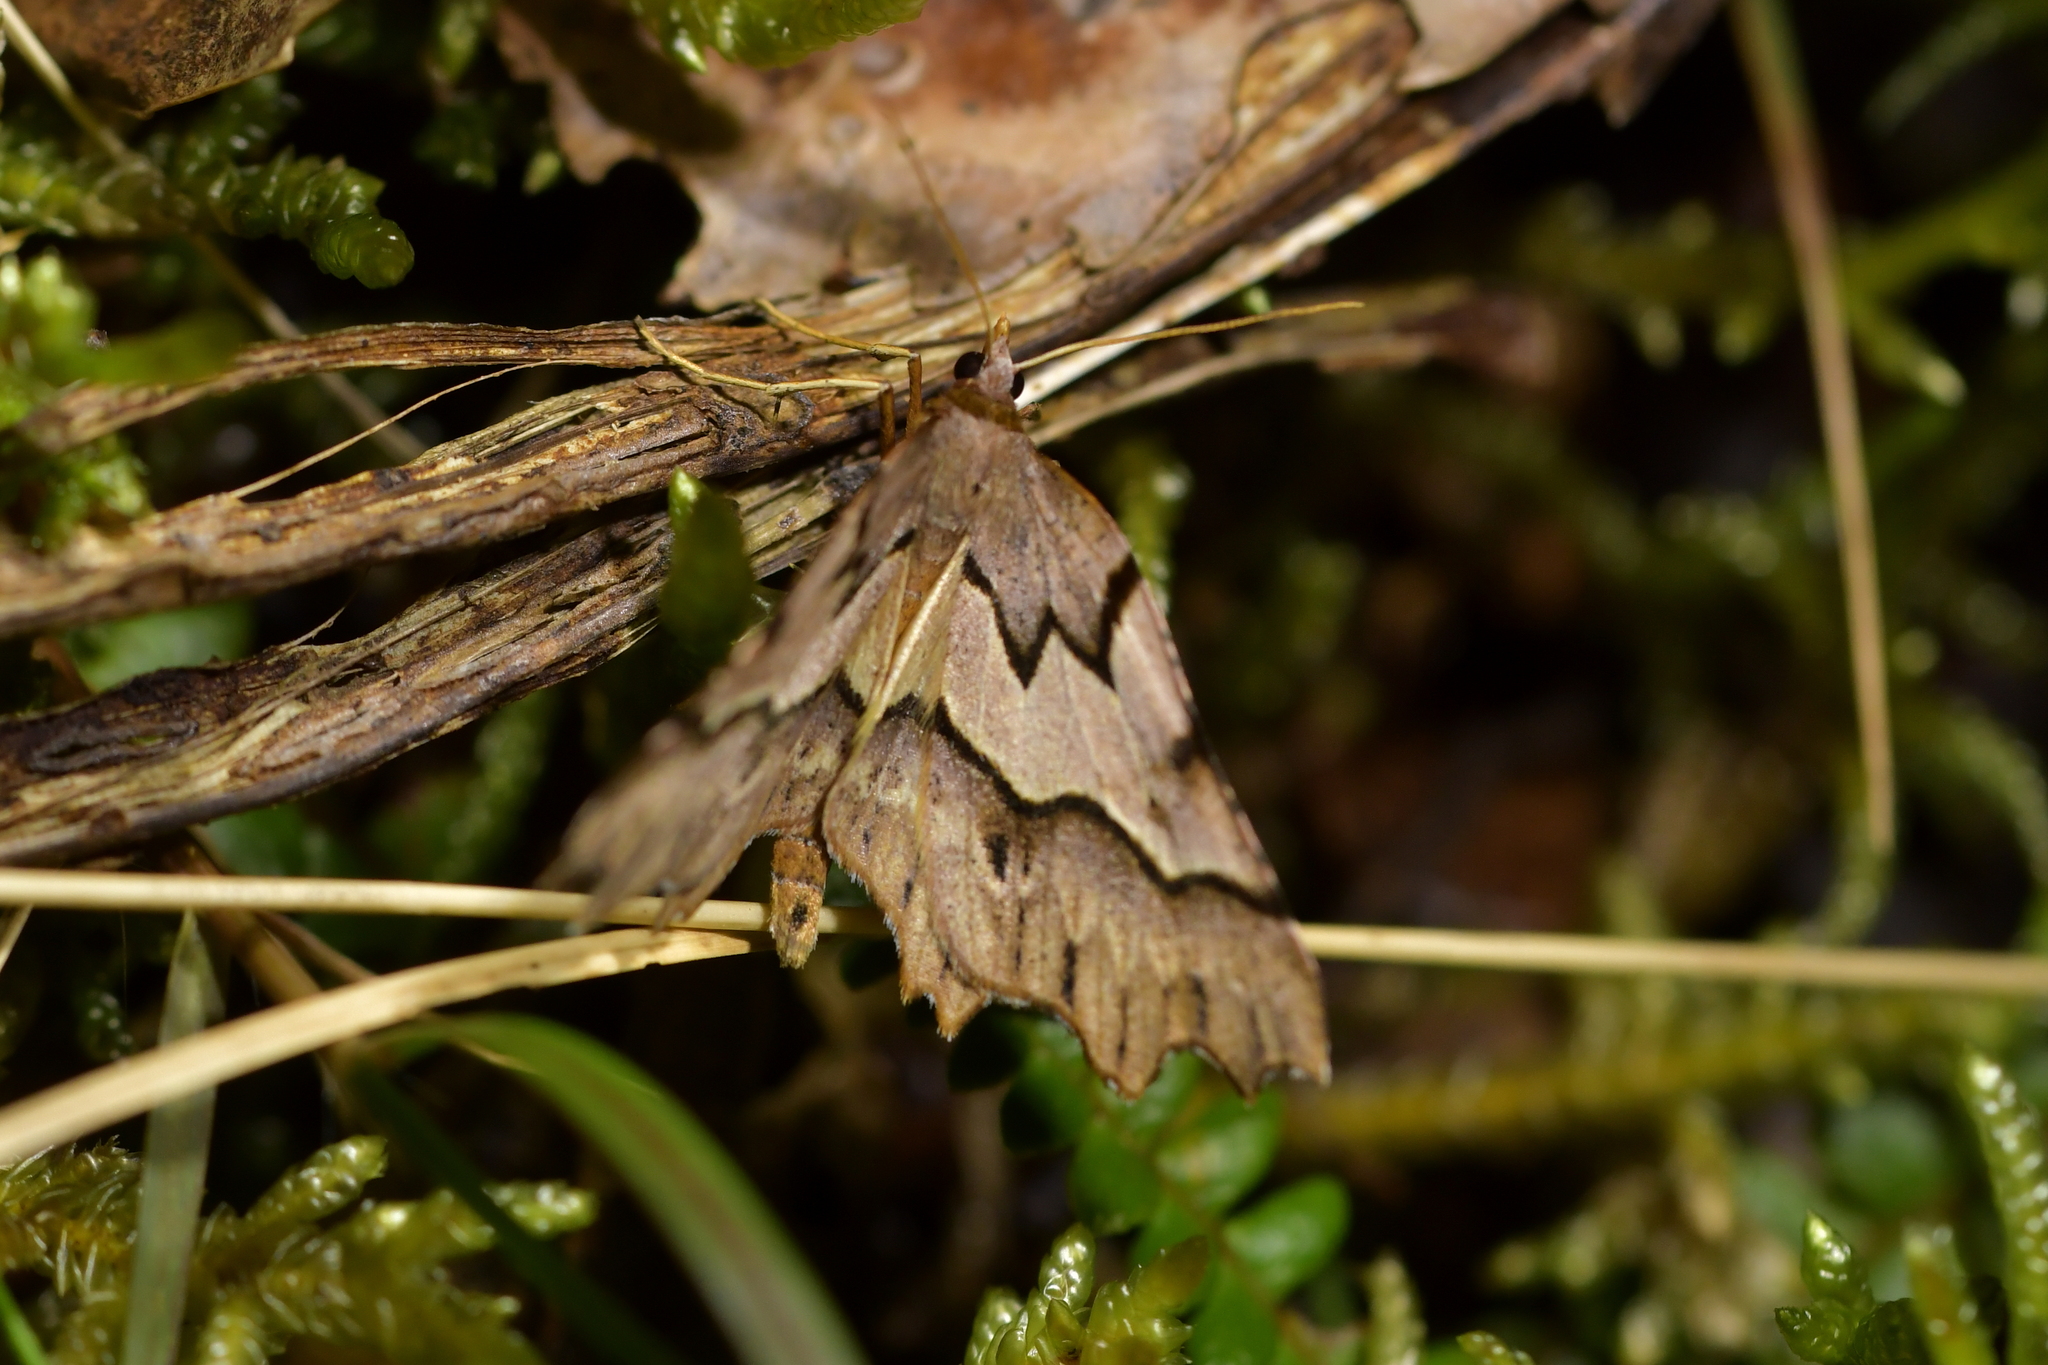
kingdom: Animalia
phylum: Arthropoda
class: Insecta
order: Lepidoptera
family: Geometridae
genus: Ischalis
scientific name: Ischalis fortinata
